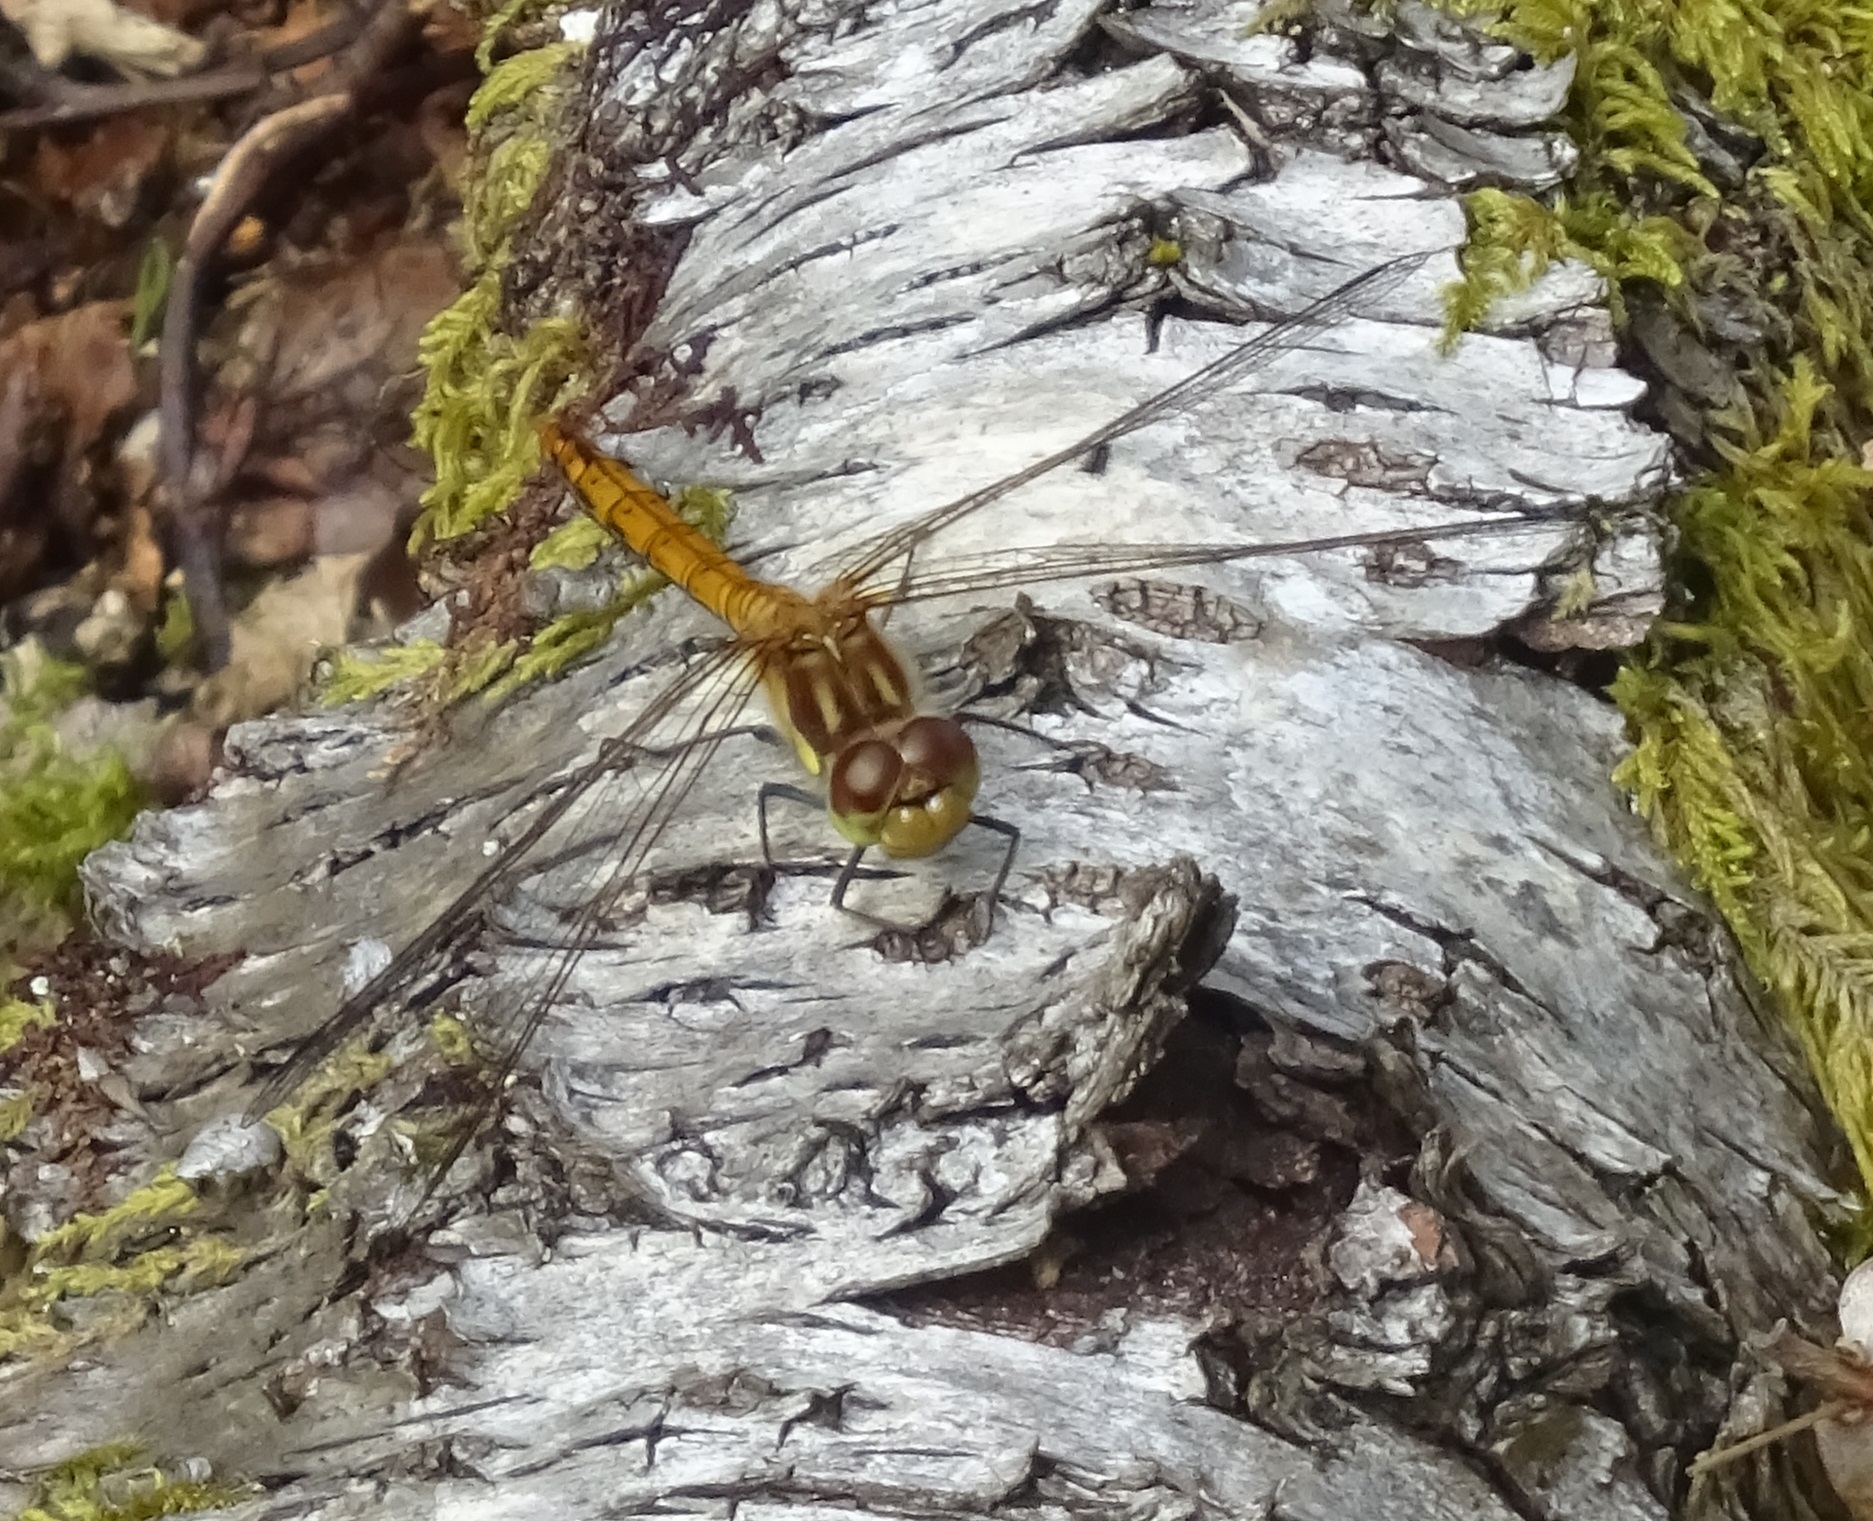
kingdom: Animalia
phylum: Arthropoda
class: Insecta
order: Odonata
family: Libellulidae
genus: Sympetrum
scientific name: Sympetrum striolatum
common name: Common darter
